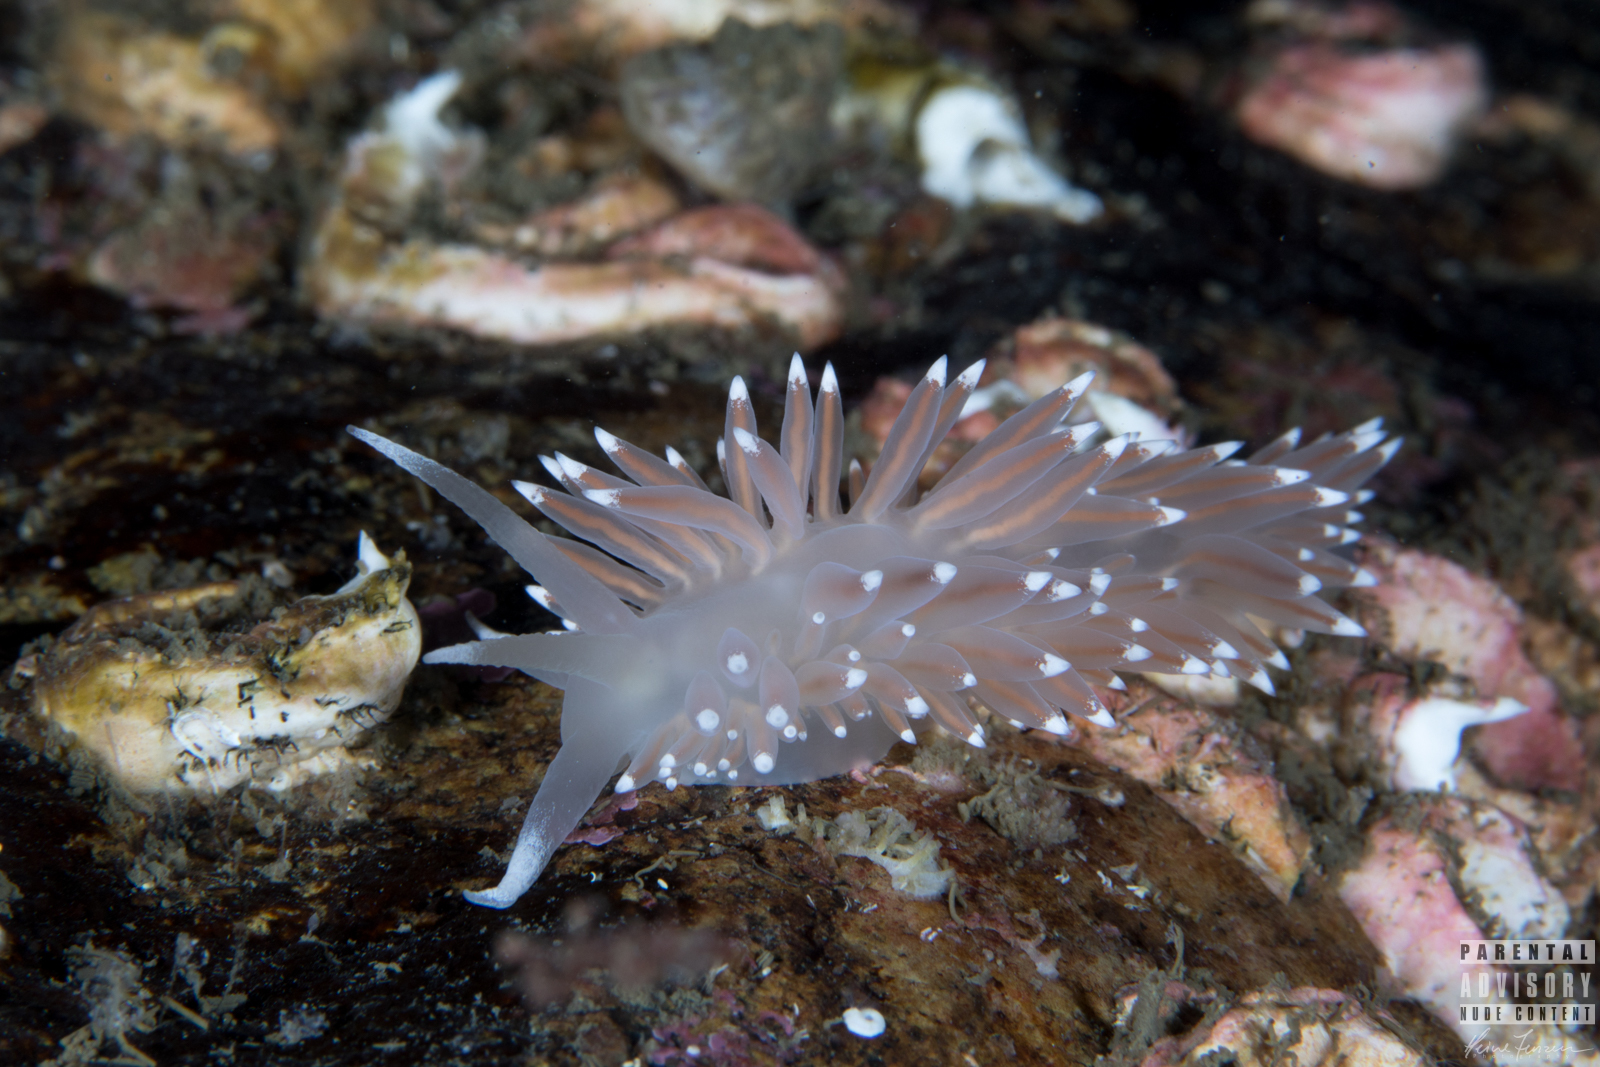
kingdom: Animalia
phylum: Mollusca
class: Gastropoda
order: Nudibranchia
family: Coryphellidae
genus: Coryphella
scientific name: Coryphella browni
